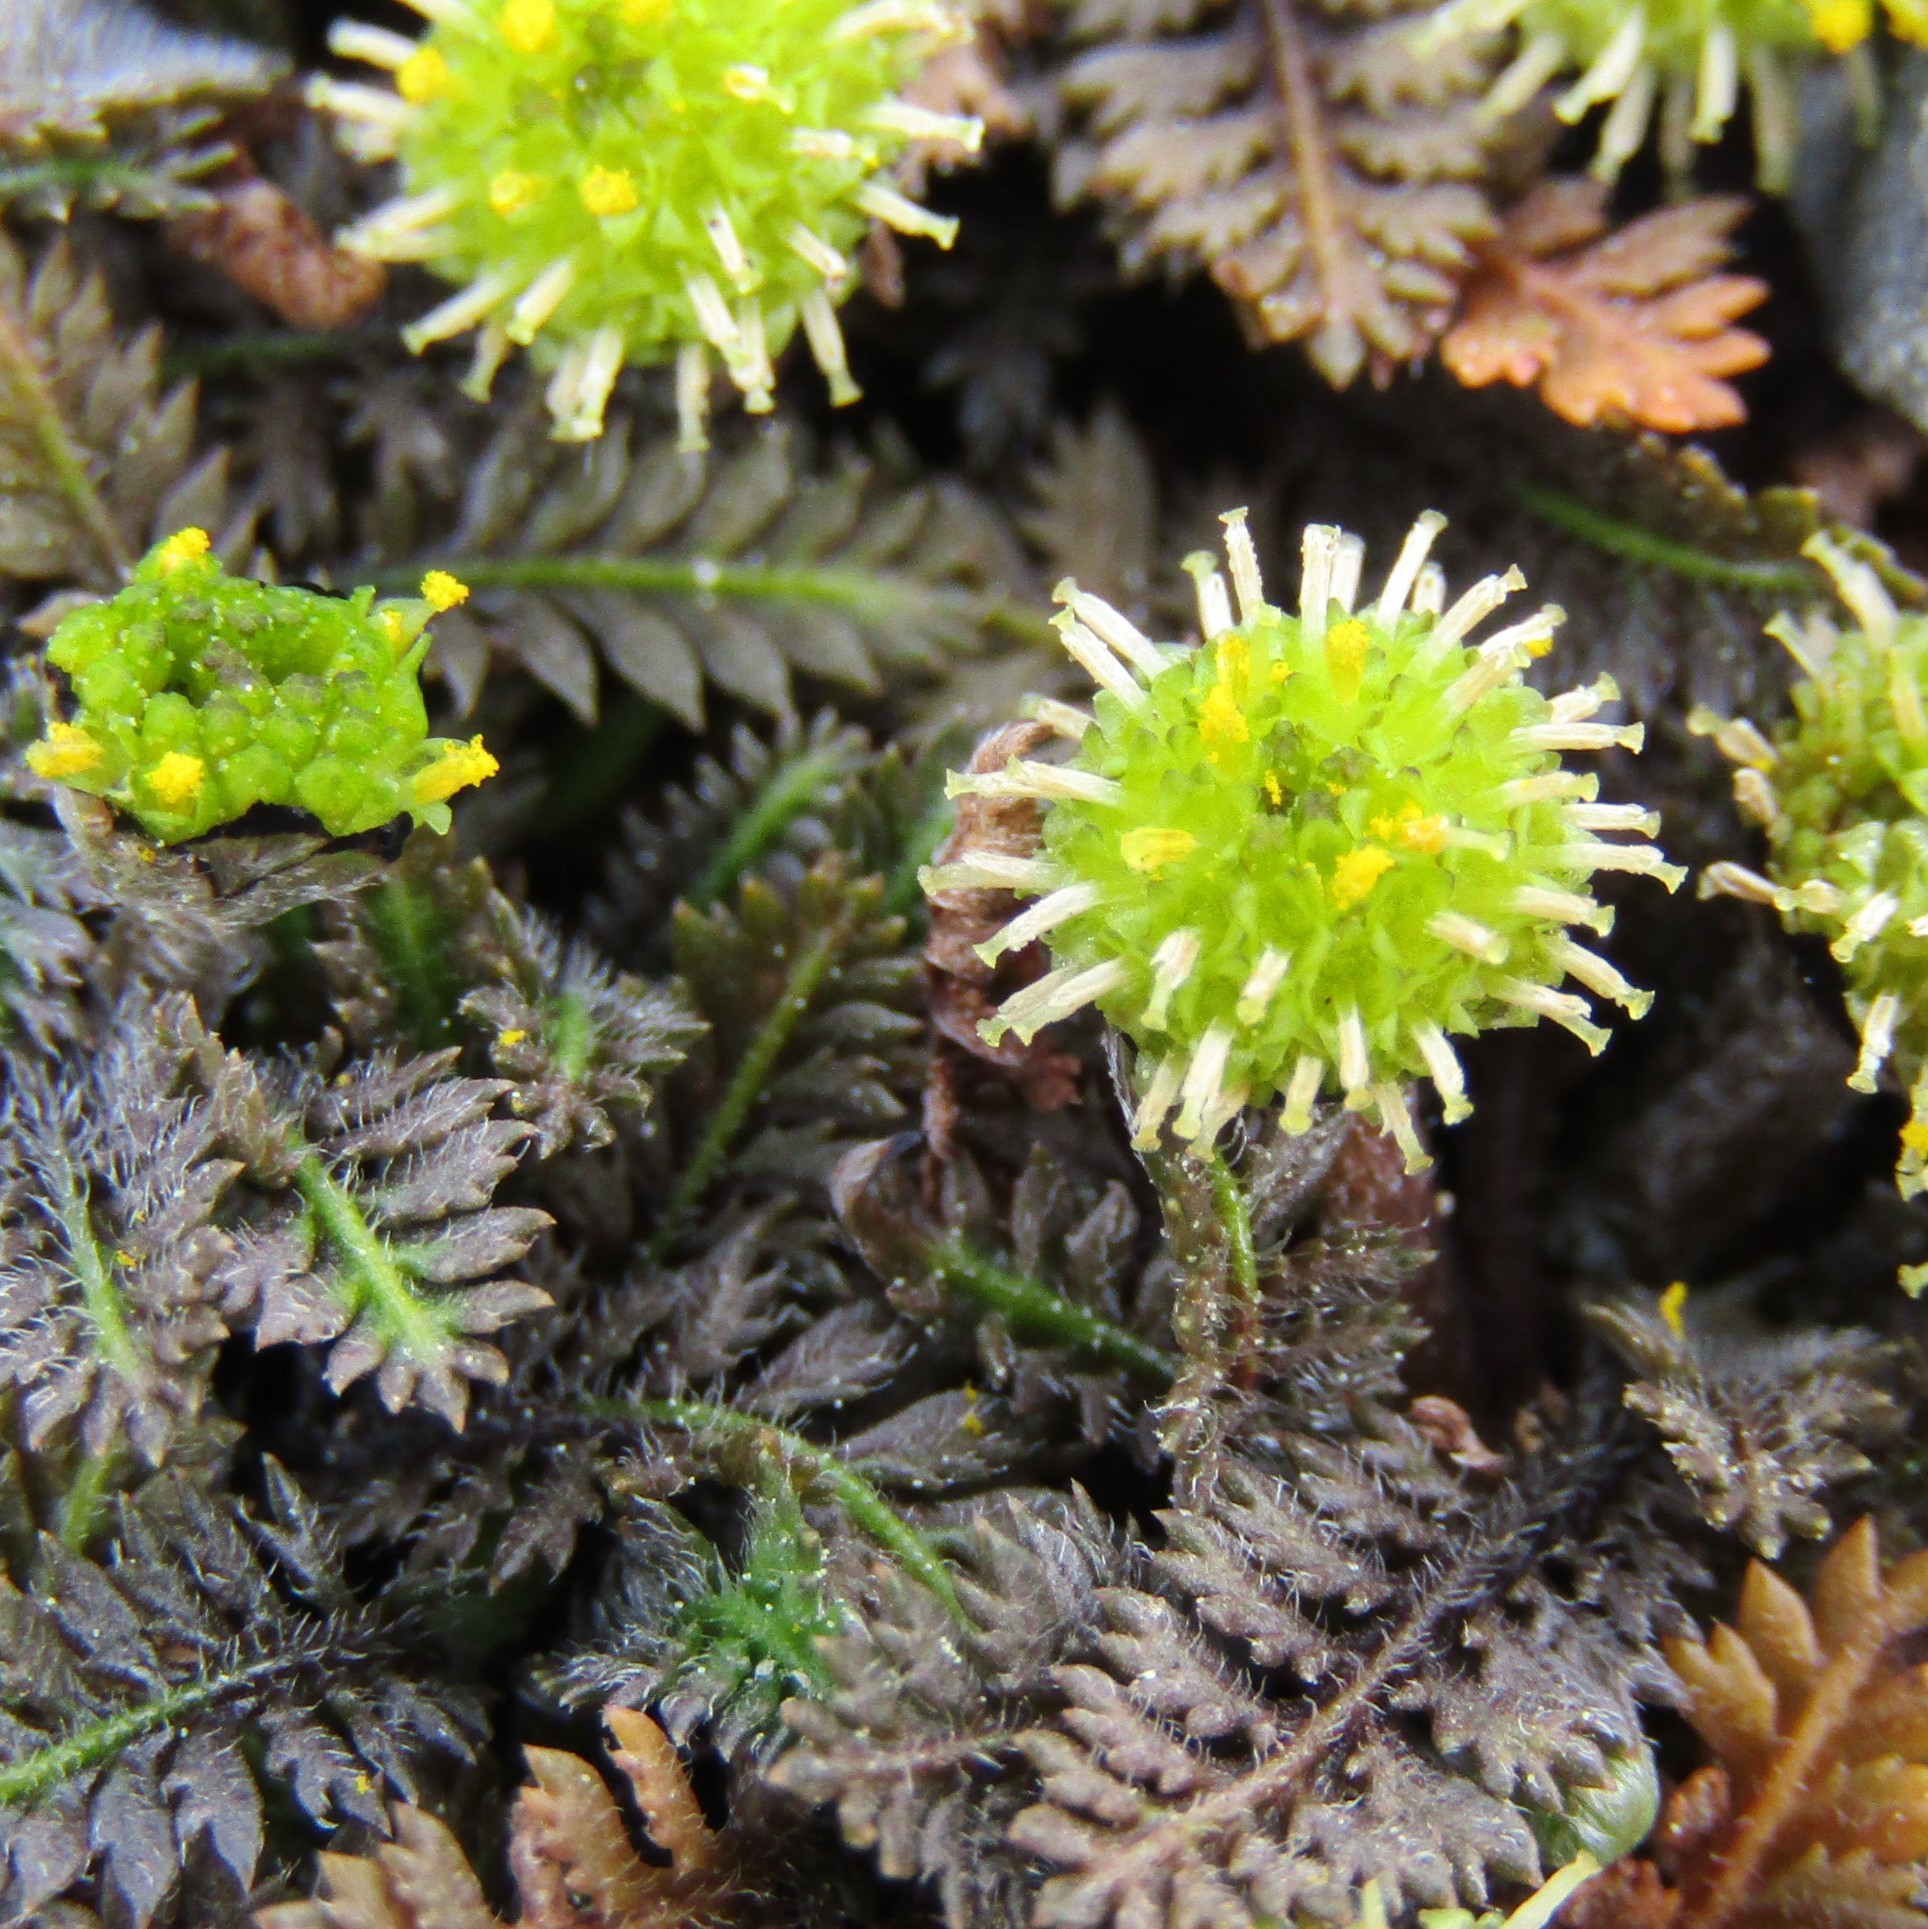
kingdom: Plantae
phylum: Tracheophyta
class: Magnoliopsida
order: Asterales
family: Asteraceae
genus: Leptinella
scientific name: Leptinella pusilla
